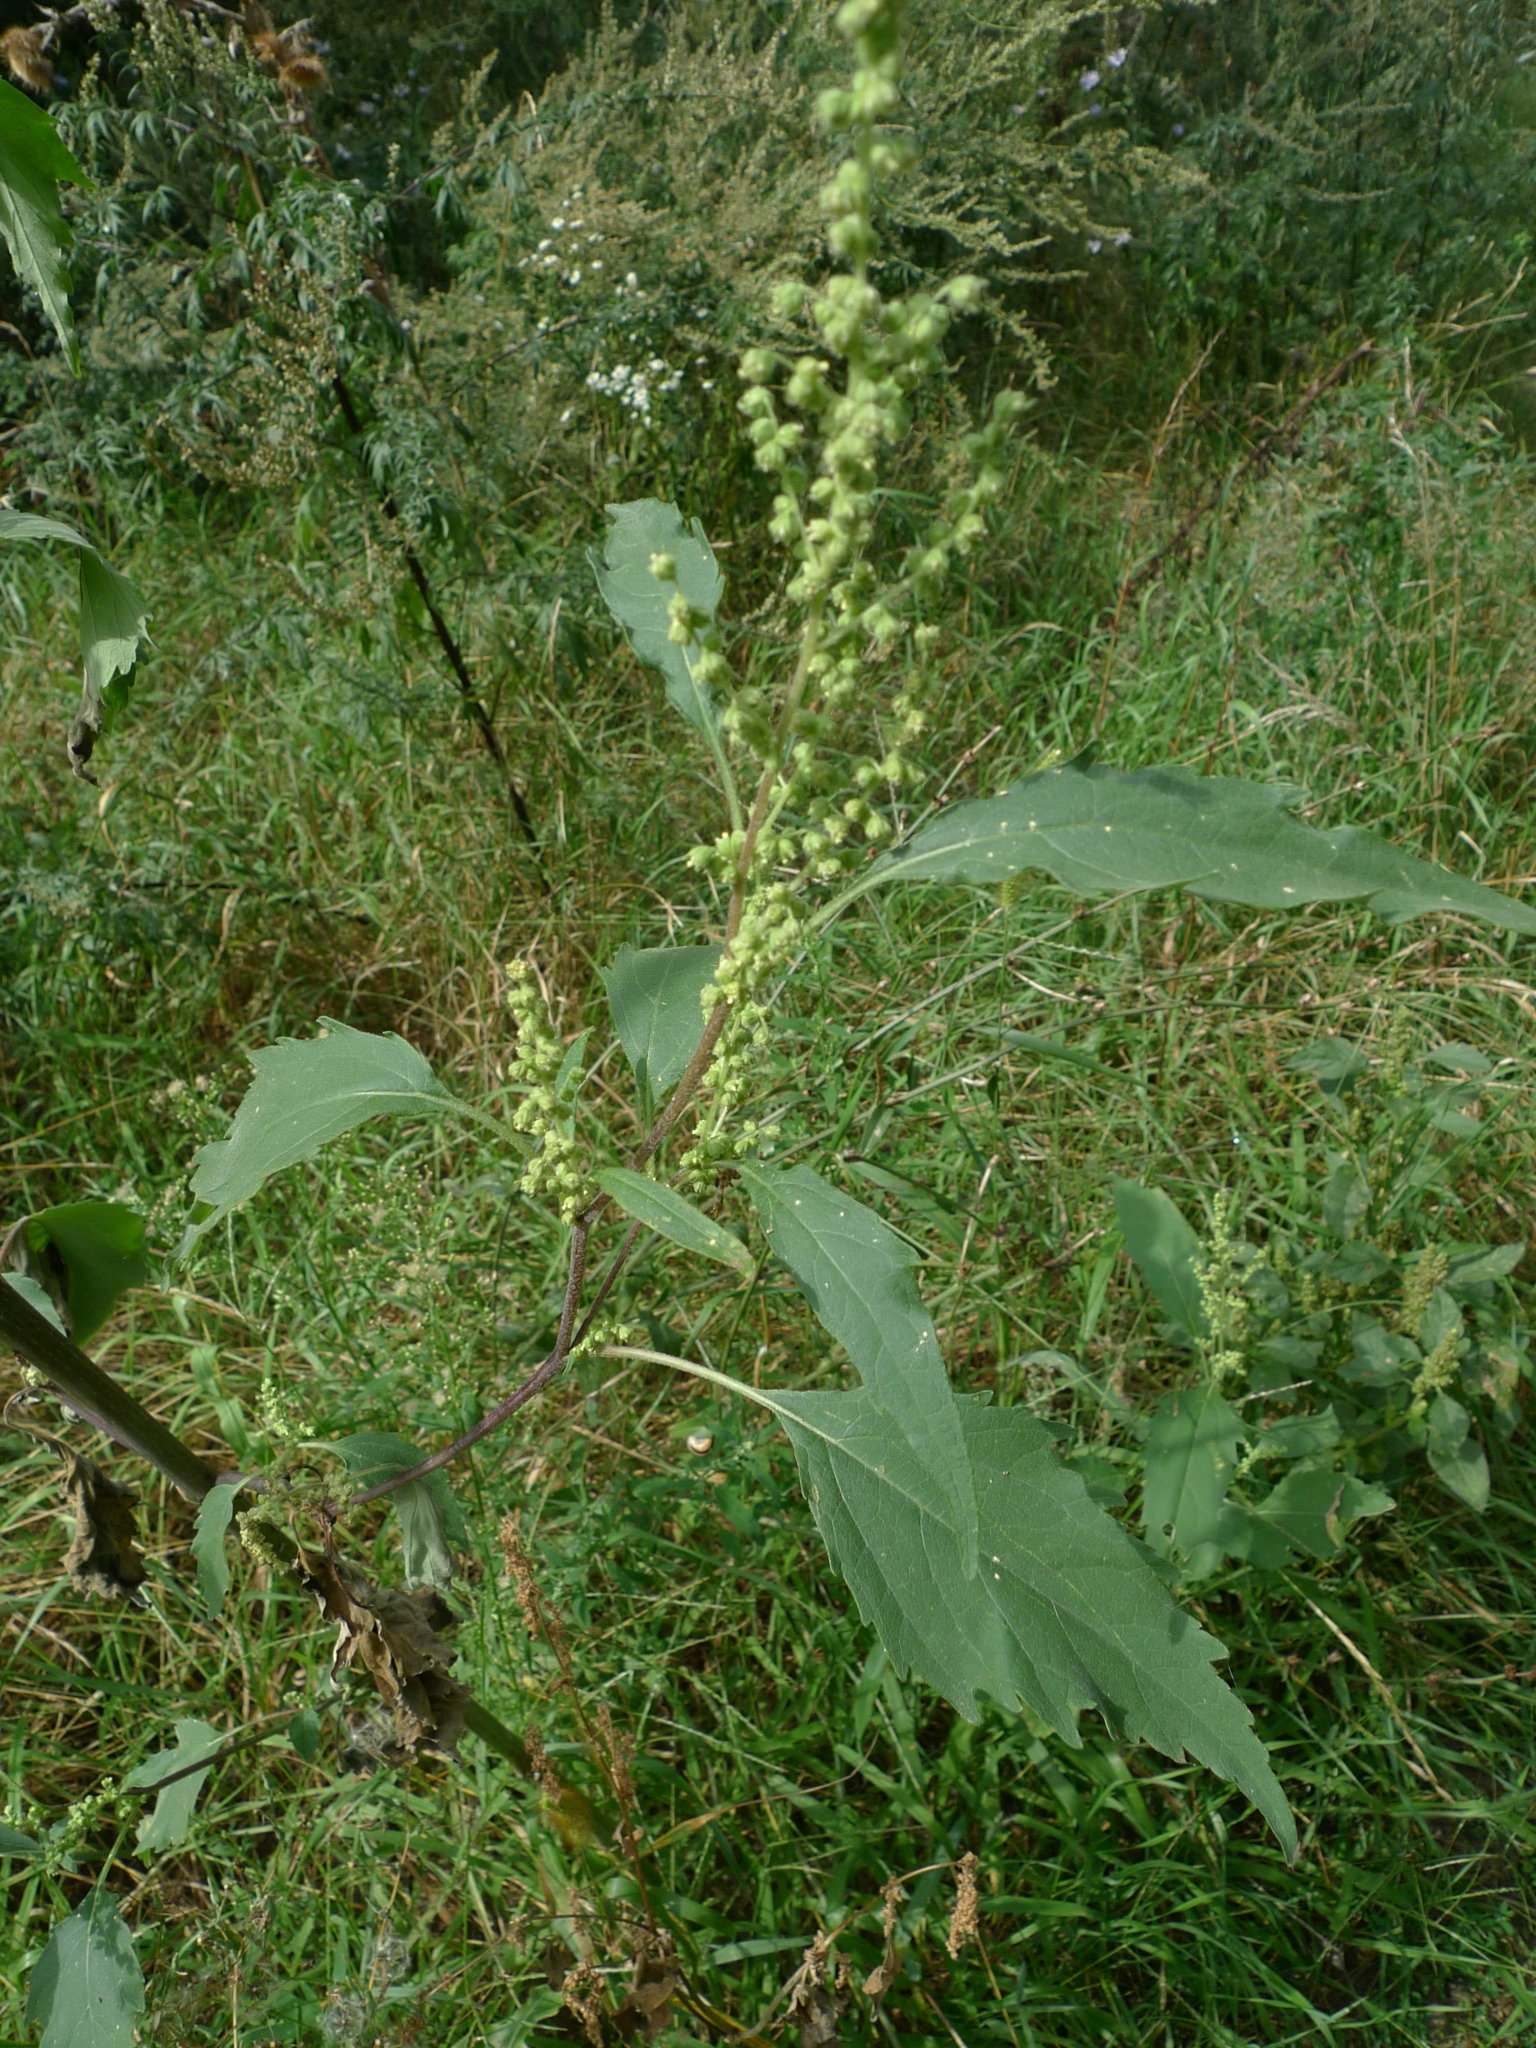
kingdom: Plantae
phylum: Tracheophyta
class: Magnoliopsida
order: Asterales
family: Asteraceae
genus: Cyclachaena
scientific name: Cyclachaena xanthiifolia
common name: Giant sumpweed
